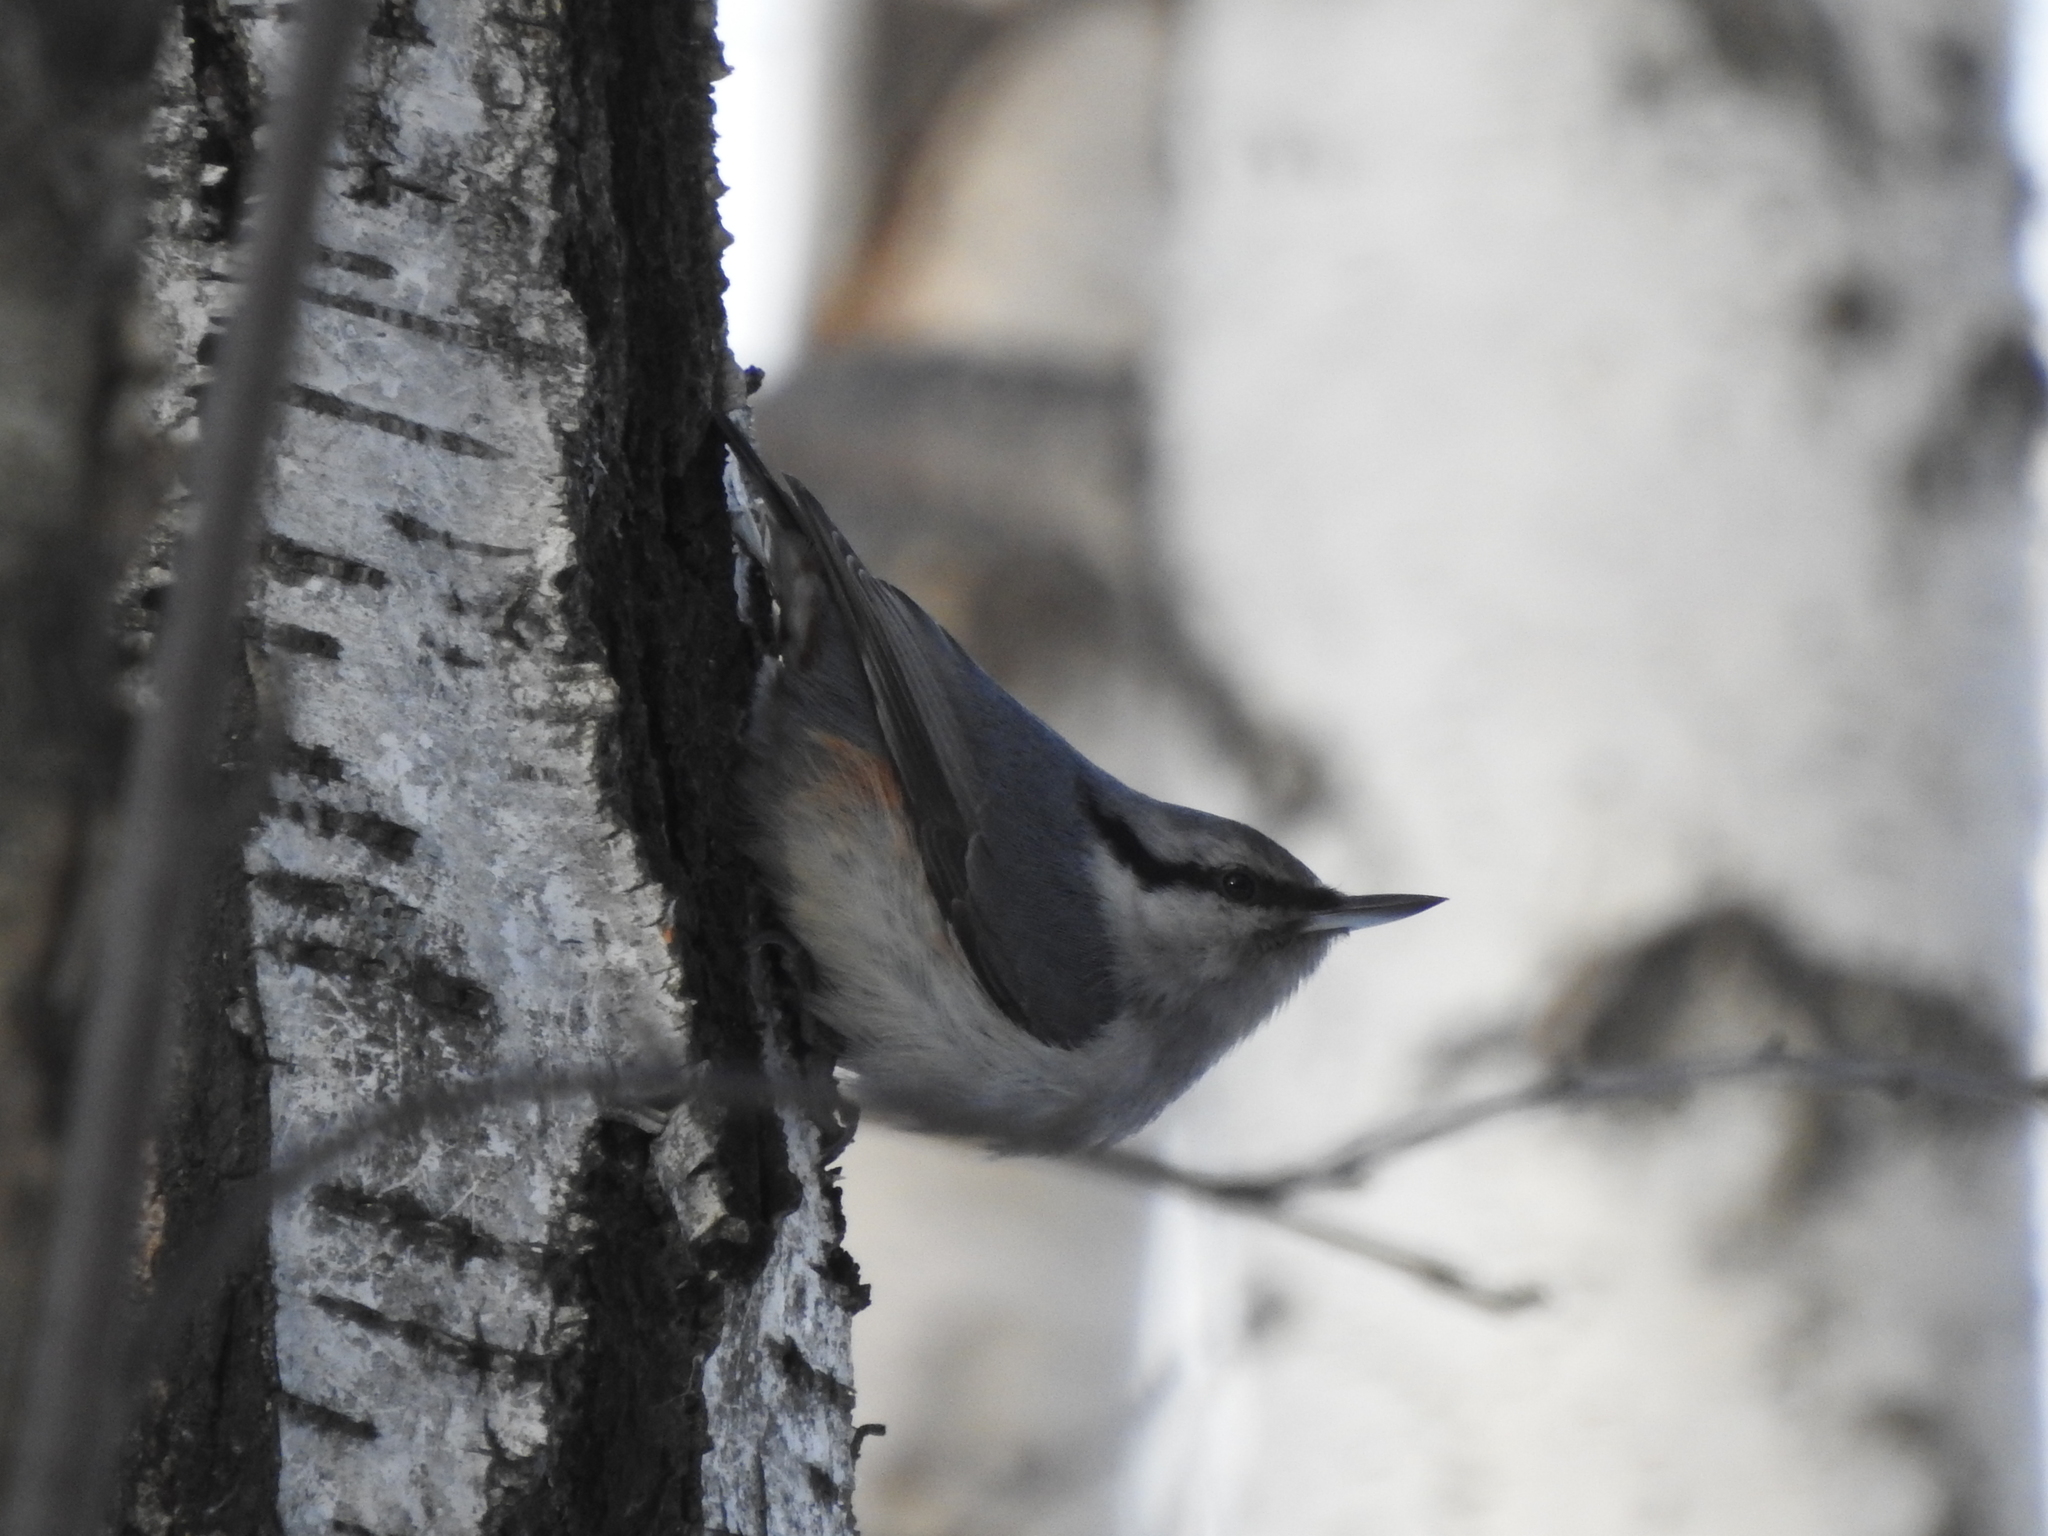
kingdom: Animalia
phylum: Chordata
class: Aves
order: Passeriformes
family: Sittidae
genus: Sitta
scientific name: Sitta europaea
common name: Eurasian nuthatch
